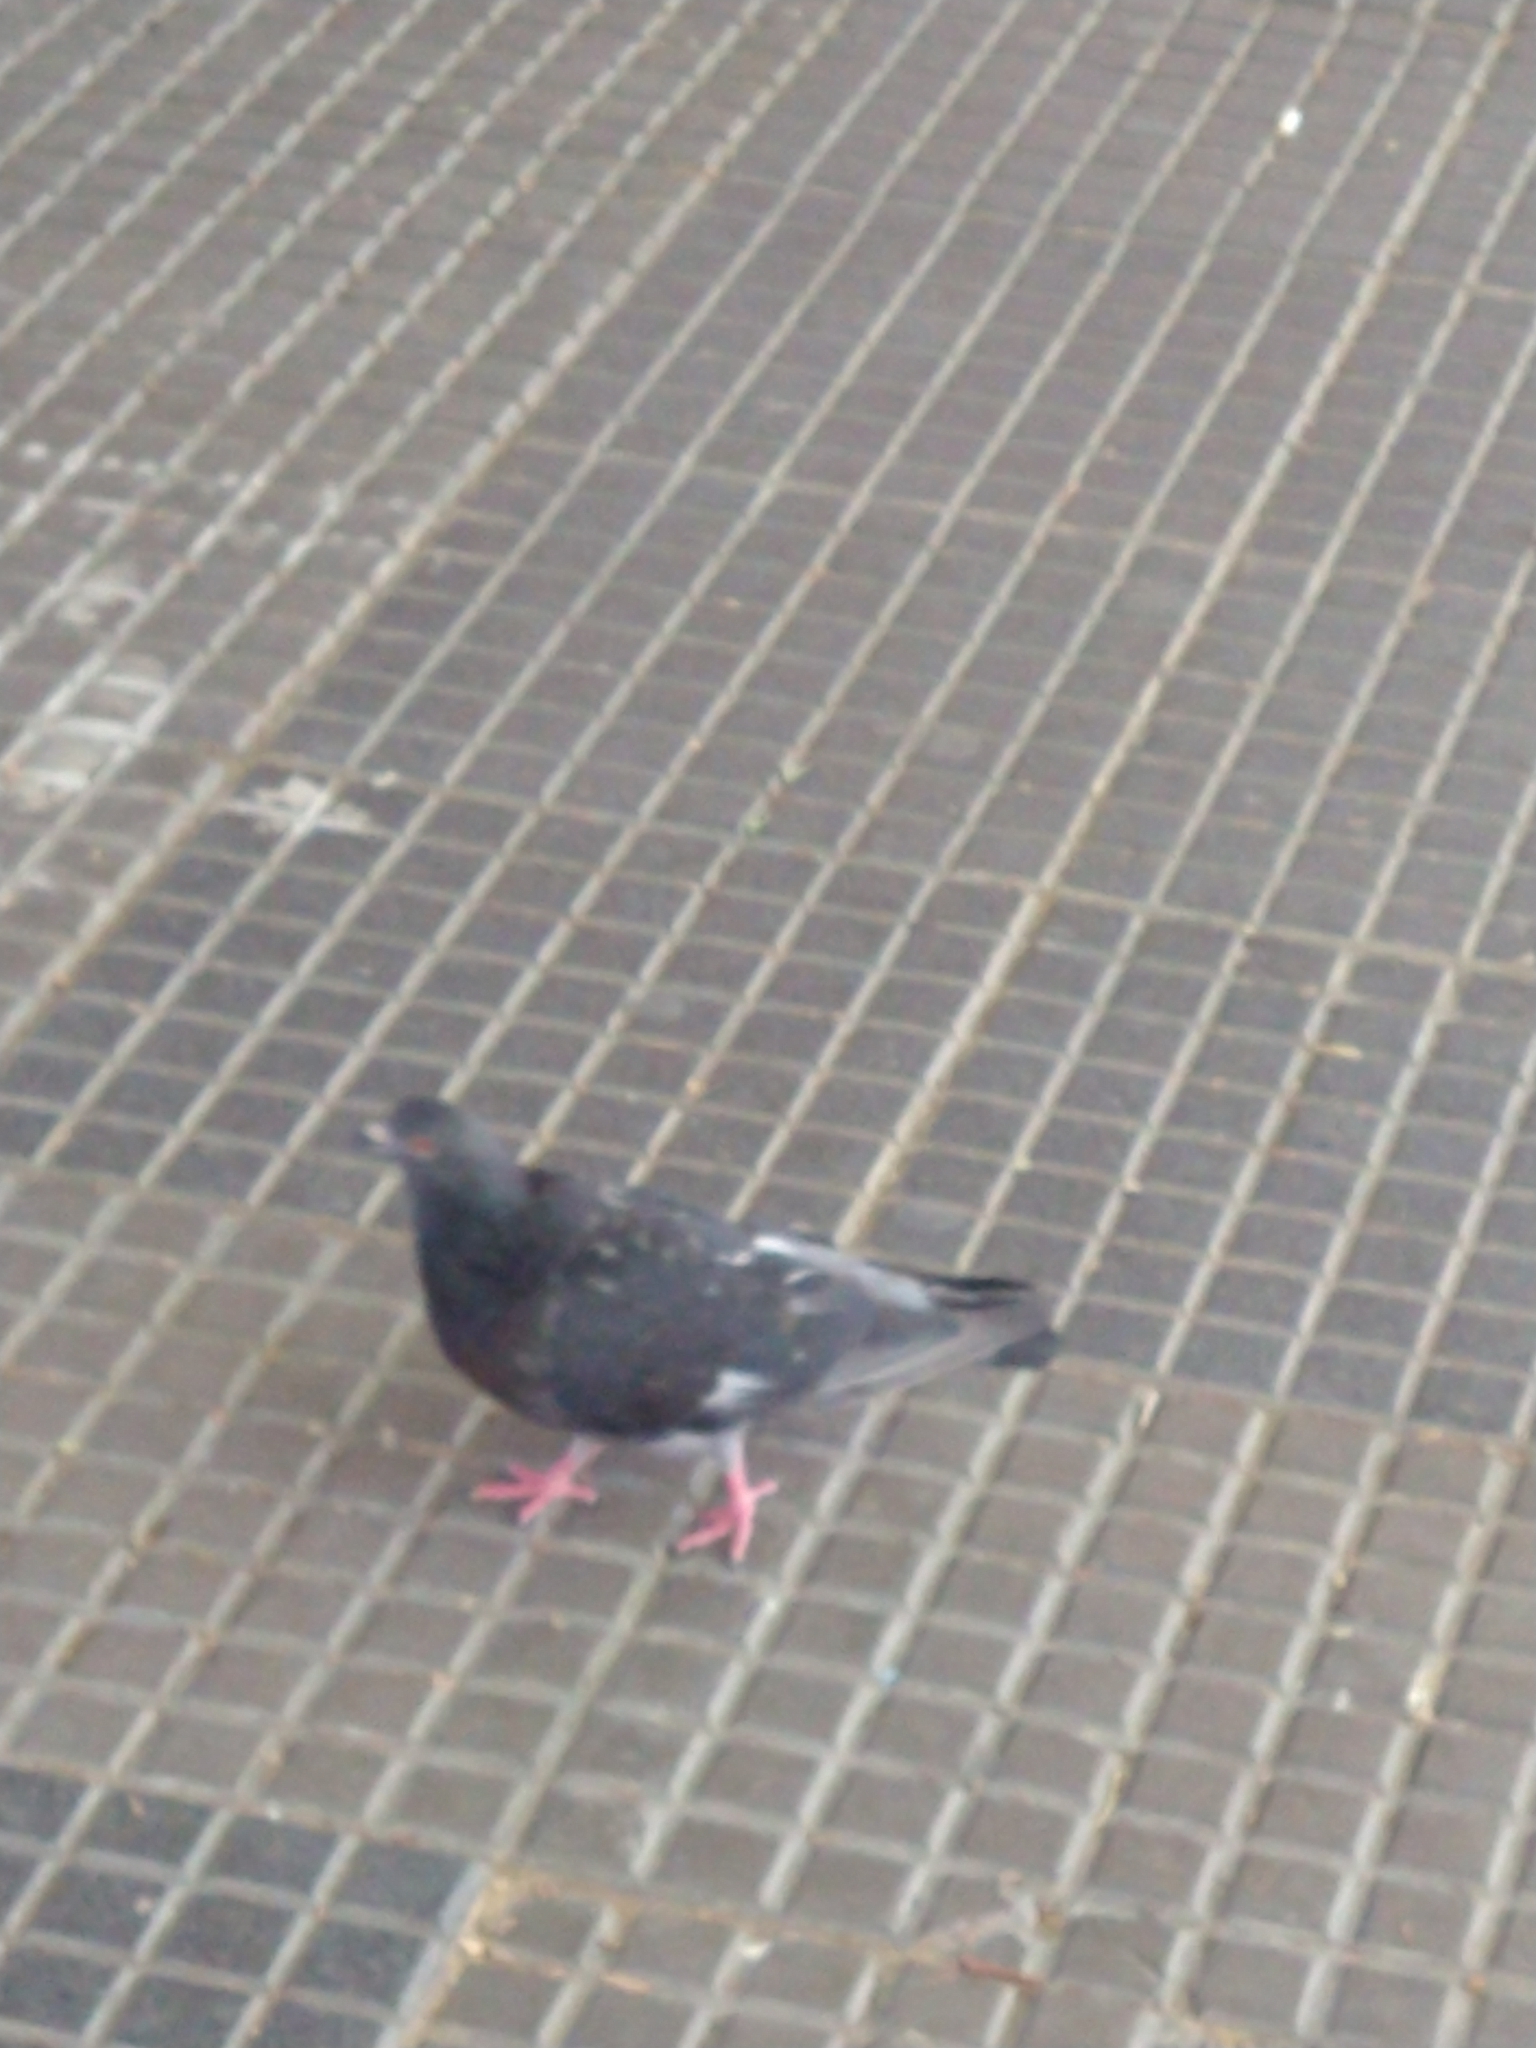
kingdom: Animalia
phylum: Chordata
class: Aves
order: Columbiformes
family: Columbidae
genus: Columba
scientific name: Columba livia
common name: Rock pigeon
